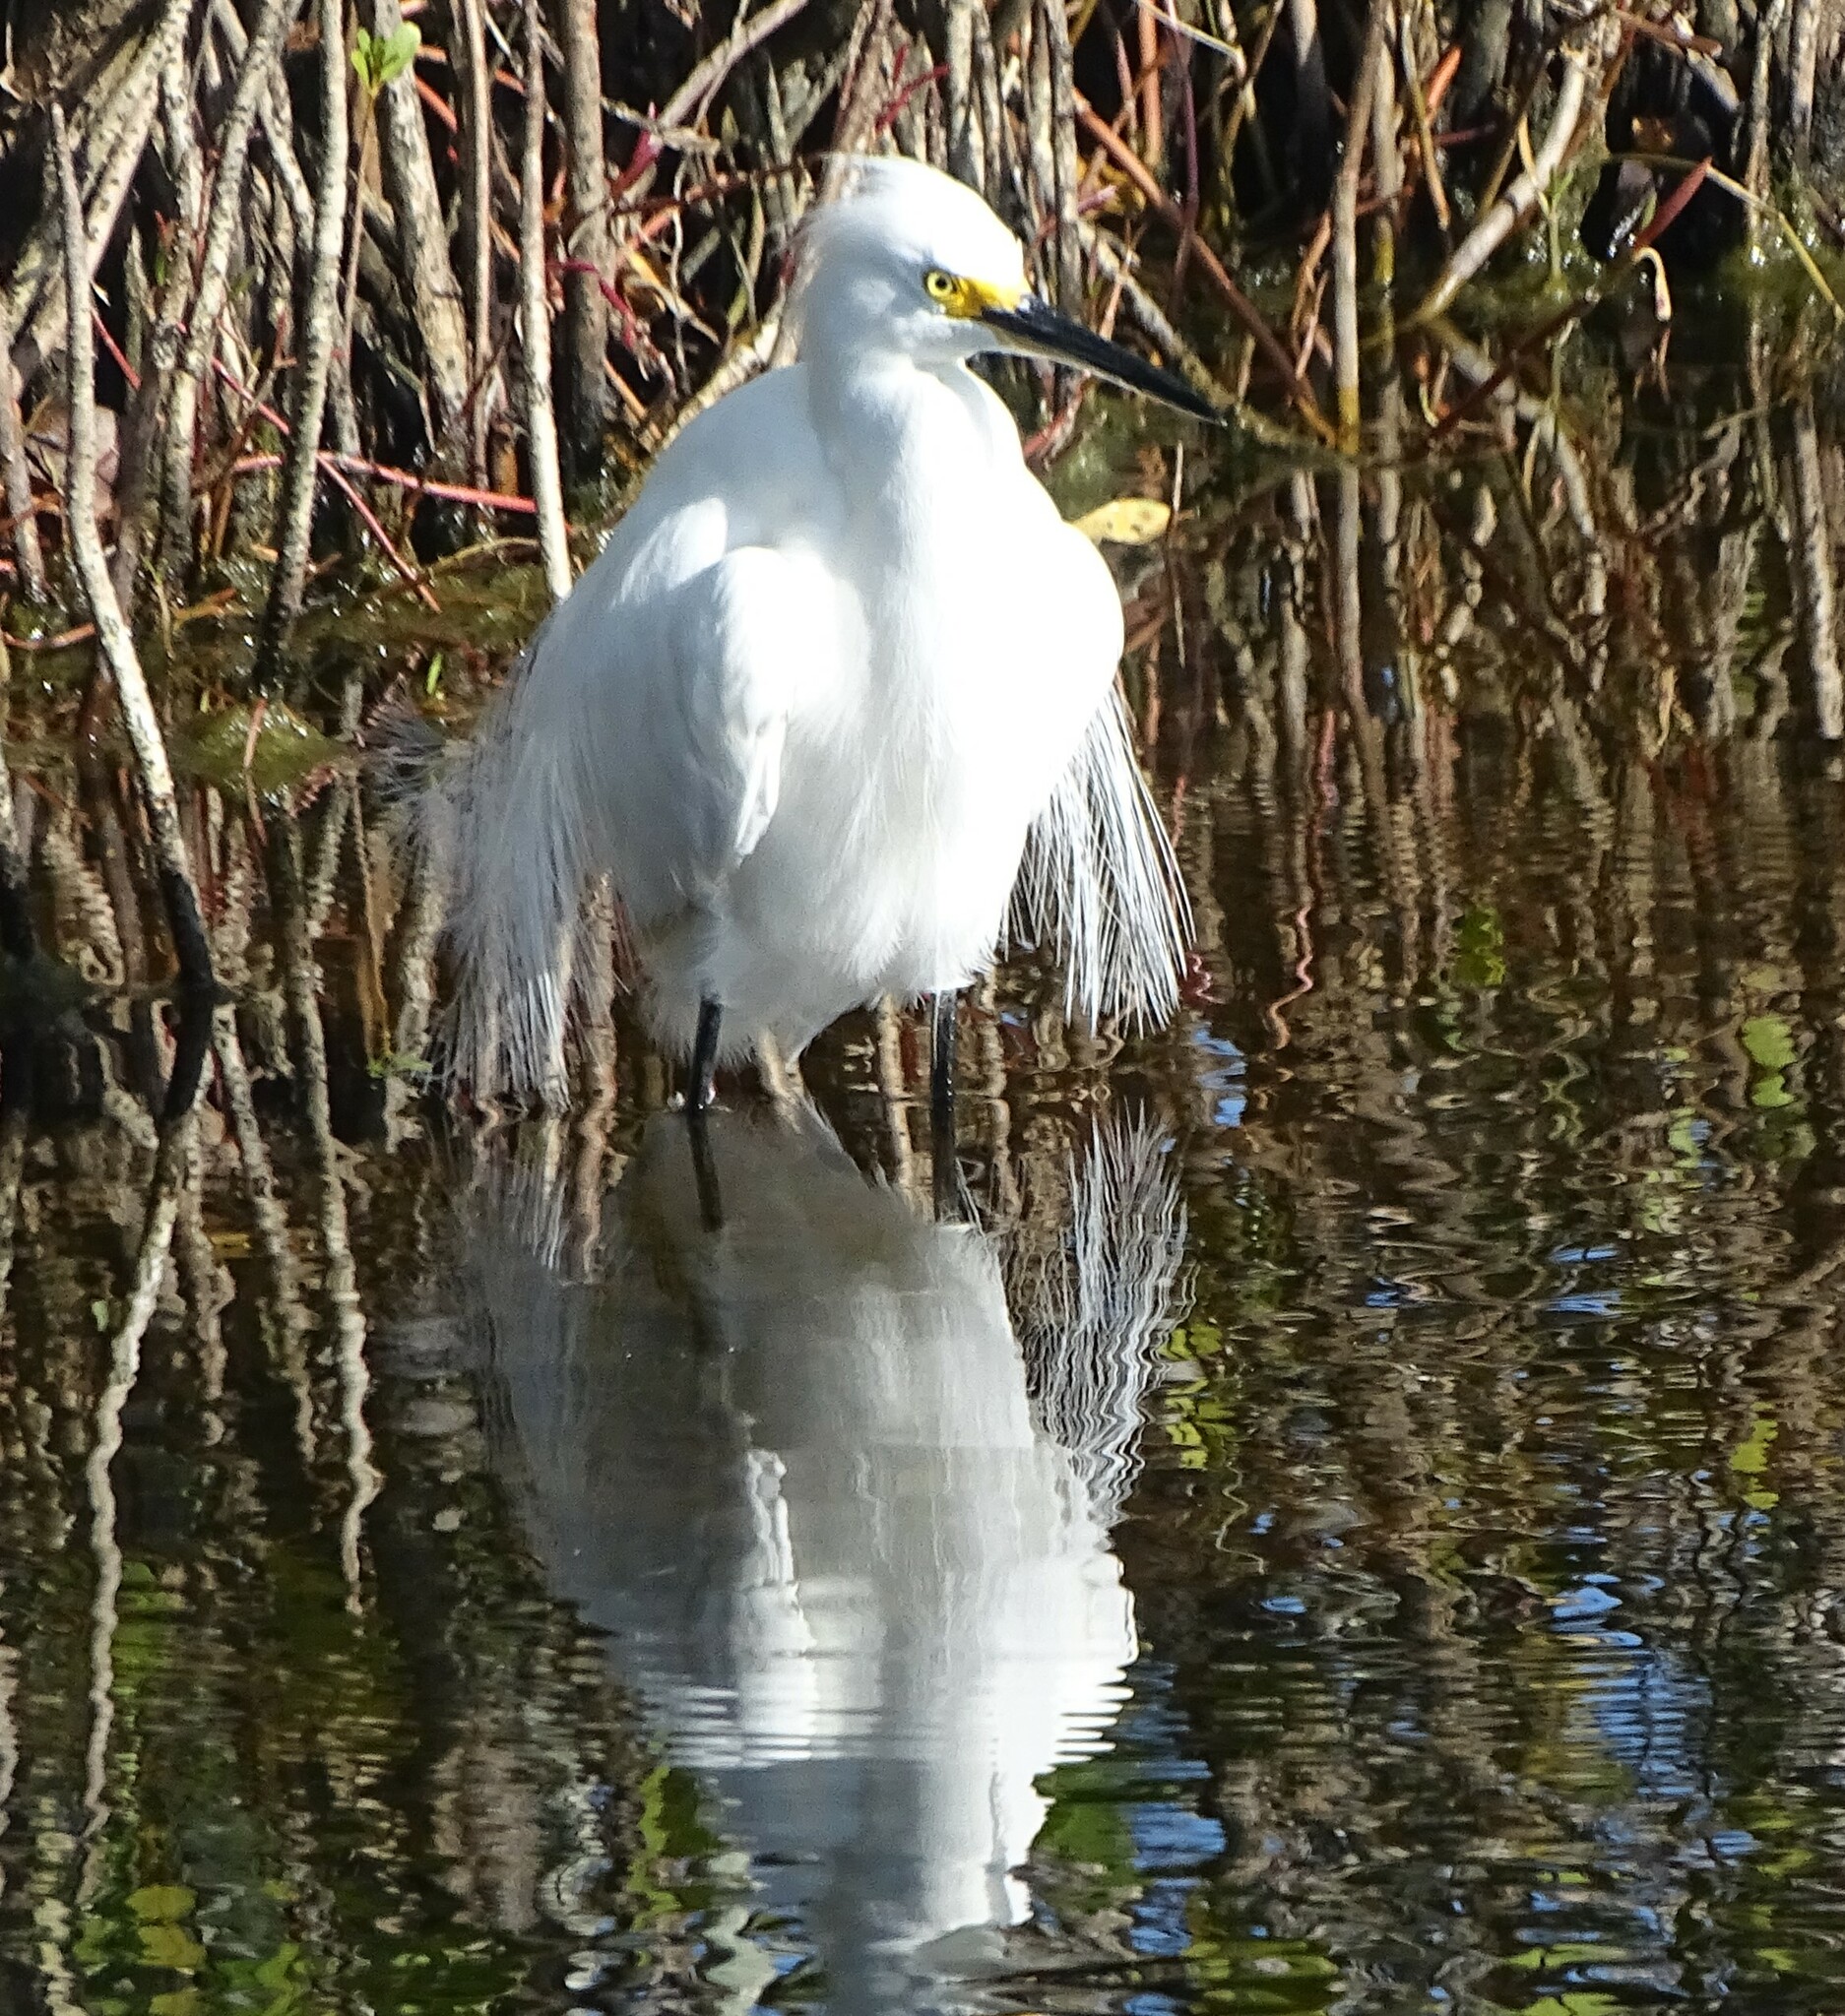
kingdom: Animalia
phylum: Chordata
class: Aves
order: Pelecaniformes
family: Ardeidae
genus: Egretta
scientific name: Egretta thula
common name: Snowy egret
